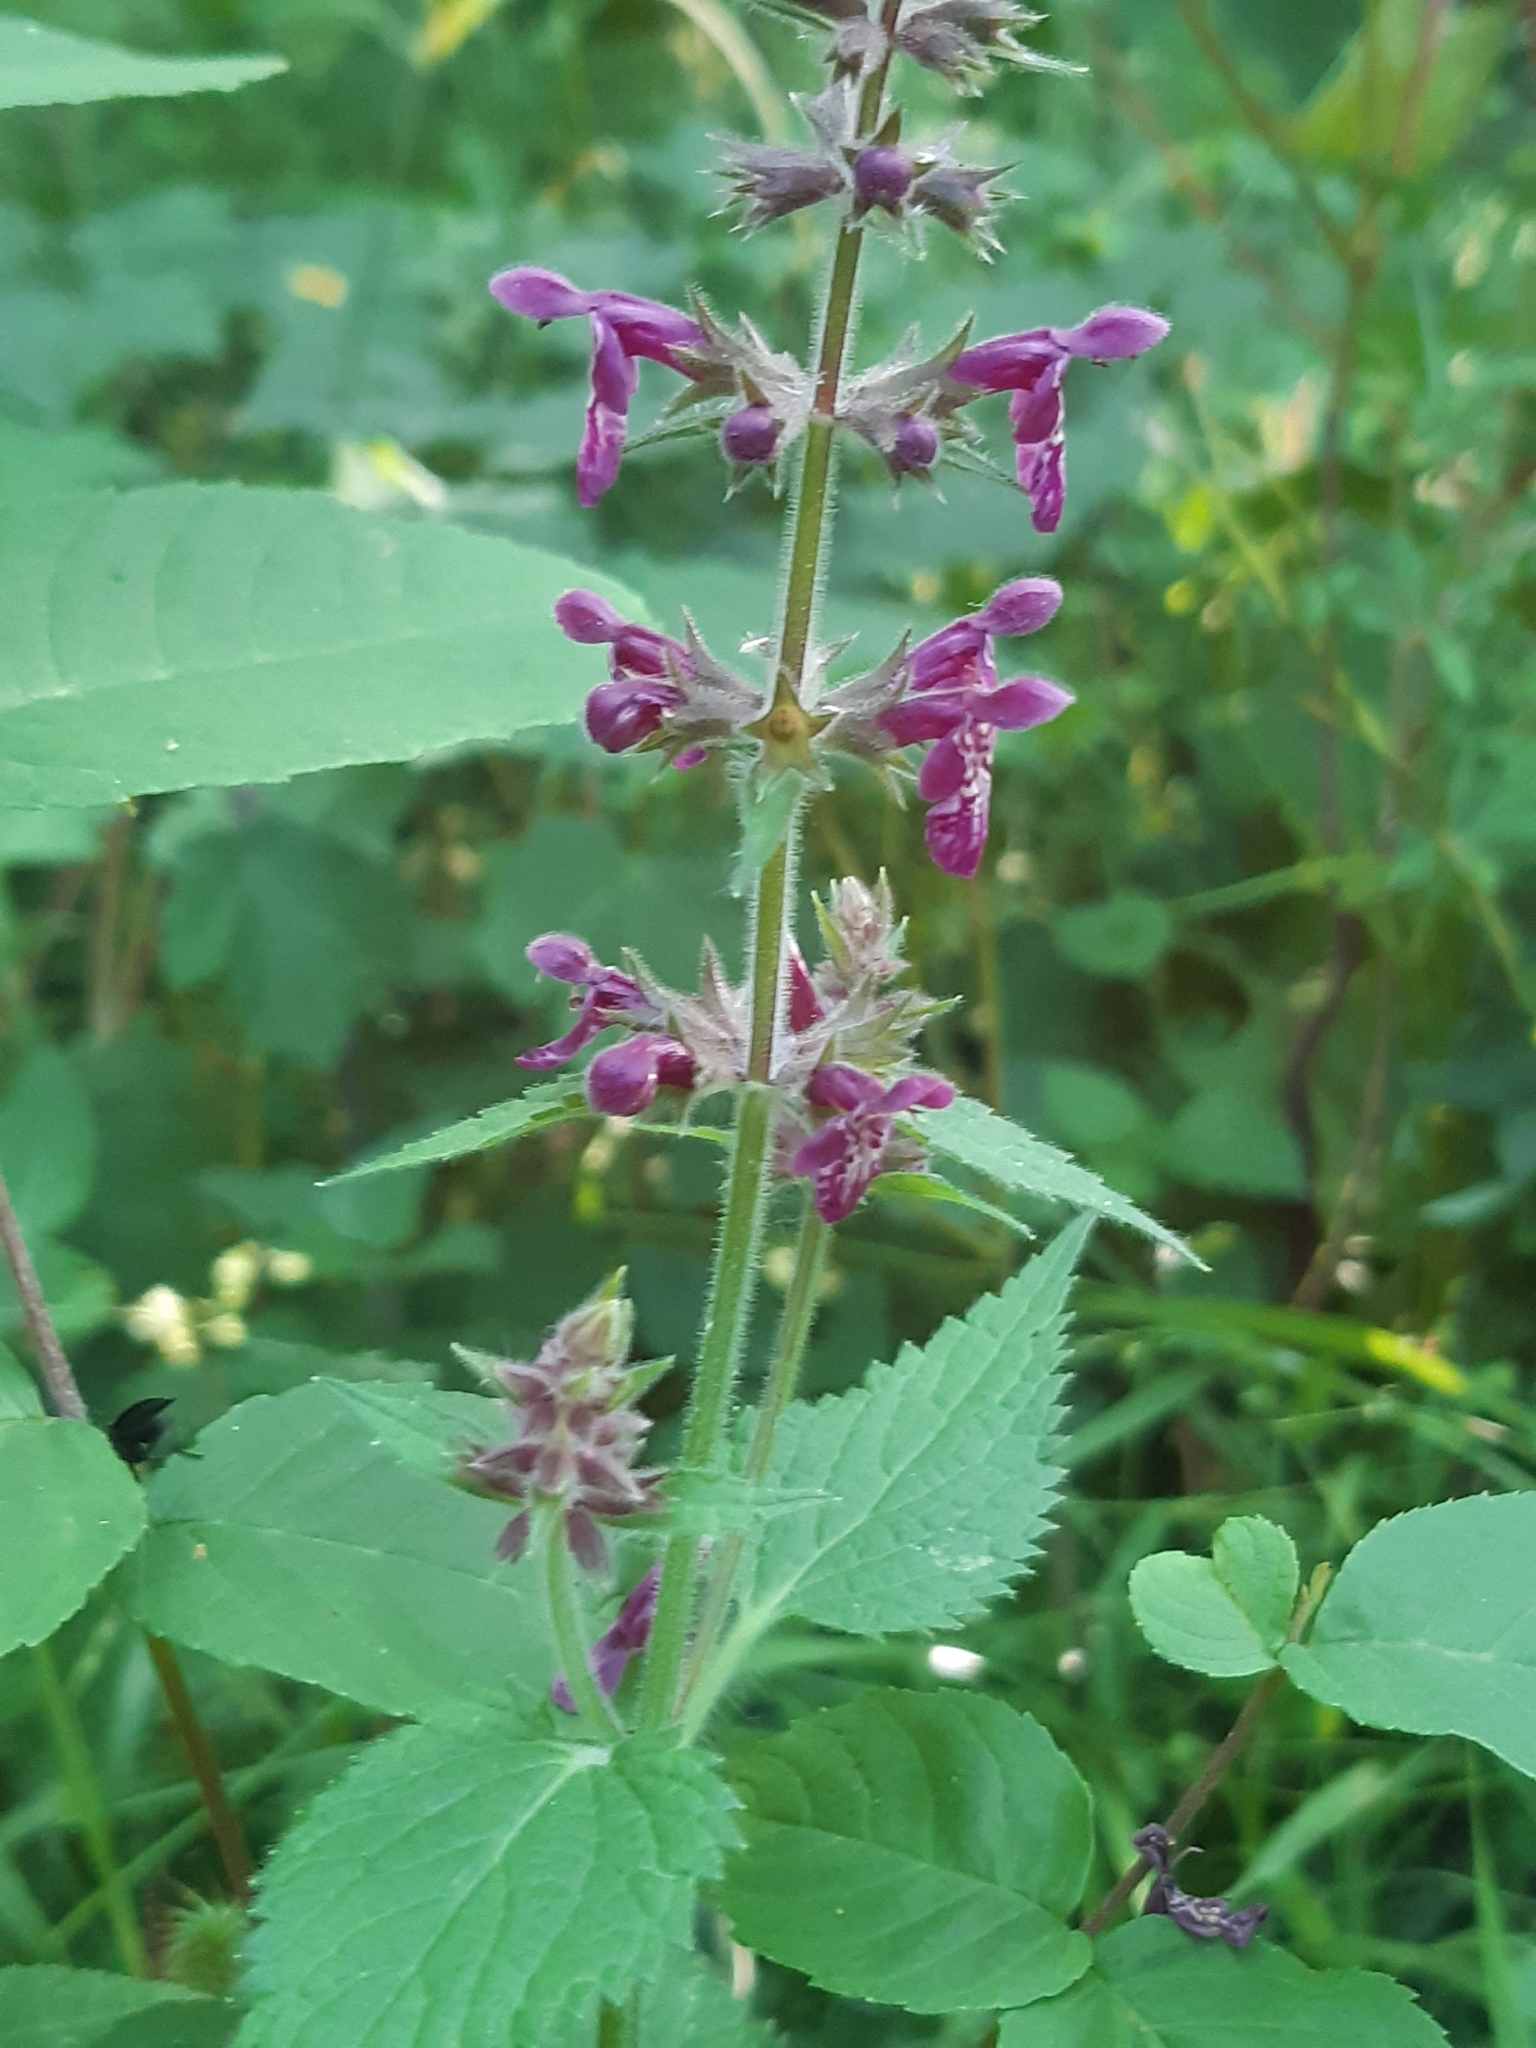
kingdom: Plantae
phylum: Tracheophyta
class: Magnoliopsida
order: Lamiales
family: Lamiaceae
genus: Stachys
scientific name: Stachys sylvatica
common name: Hedge woundwort
